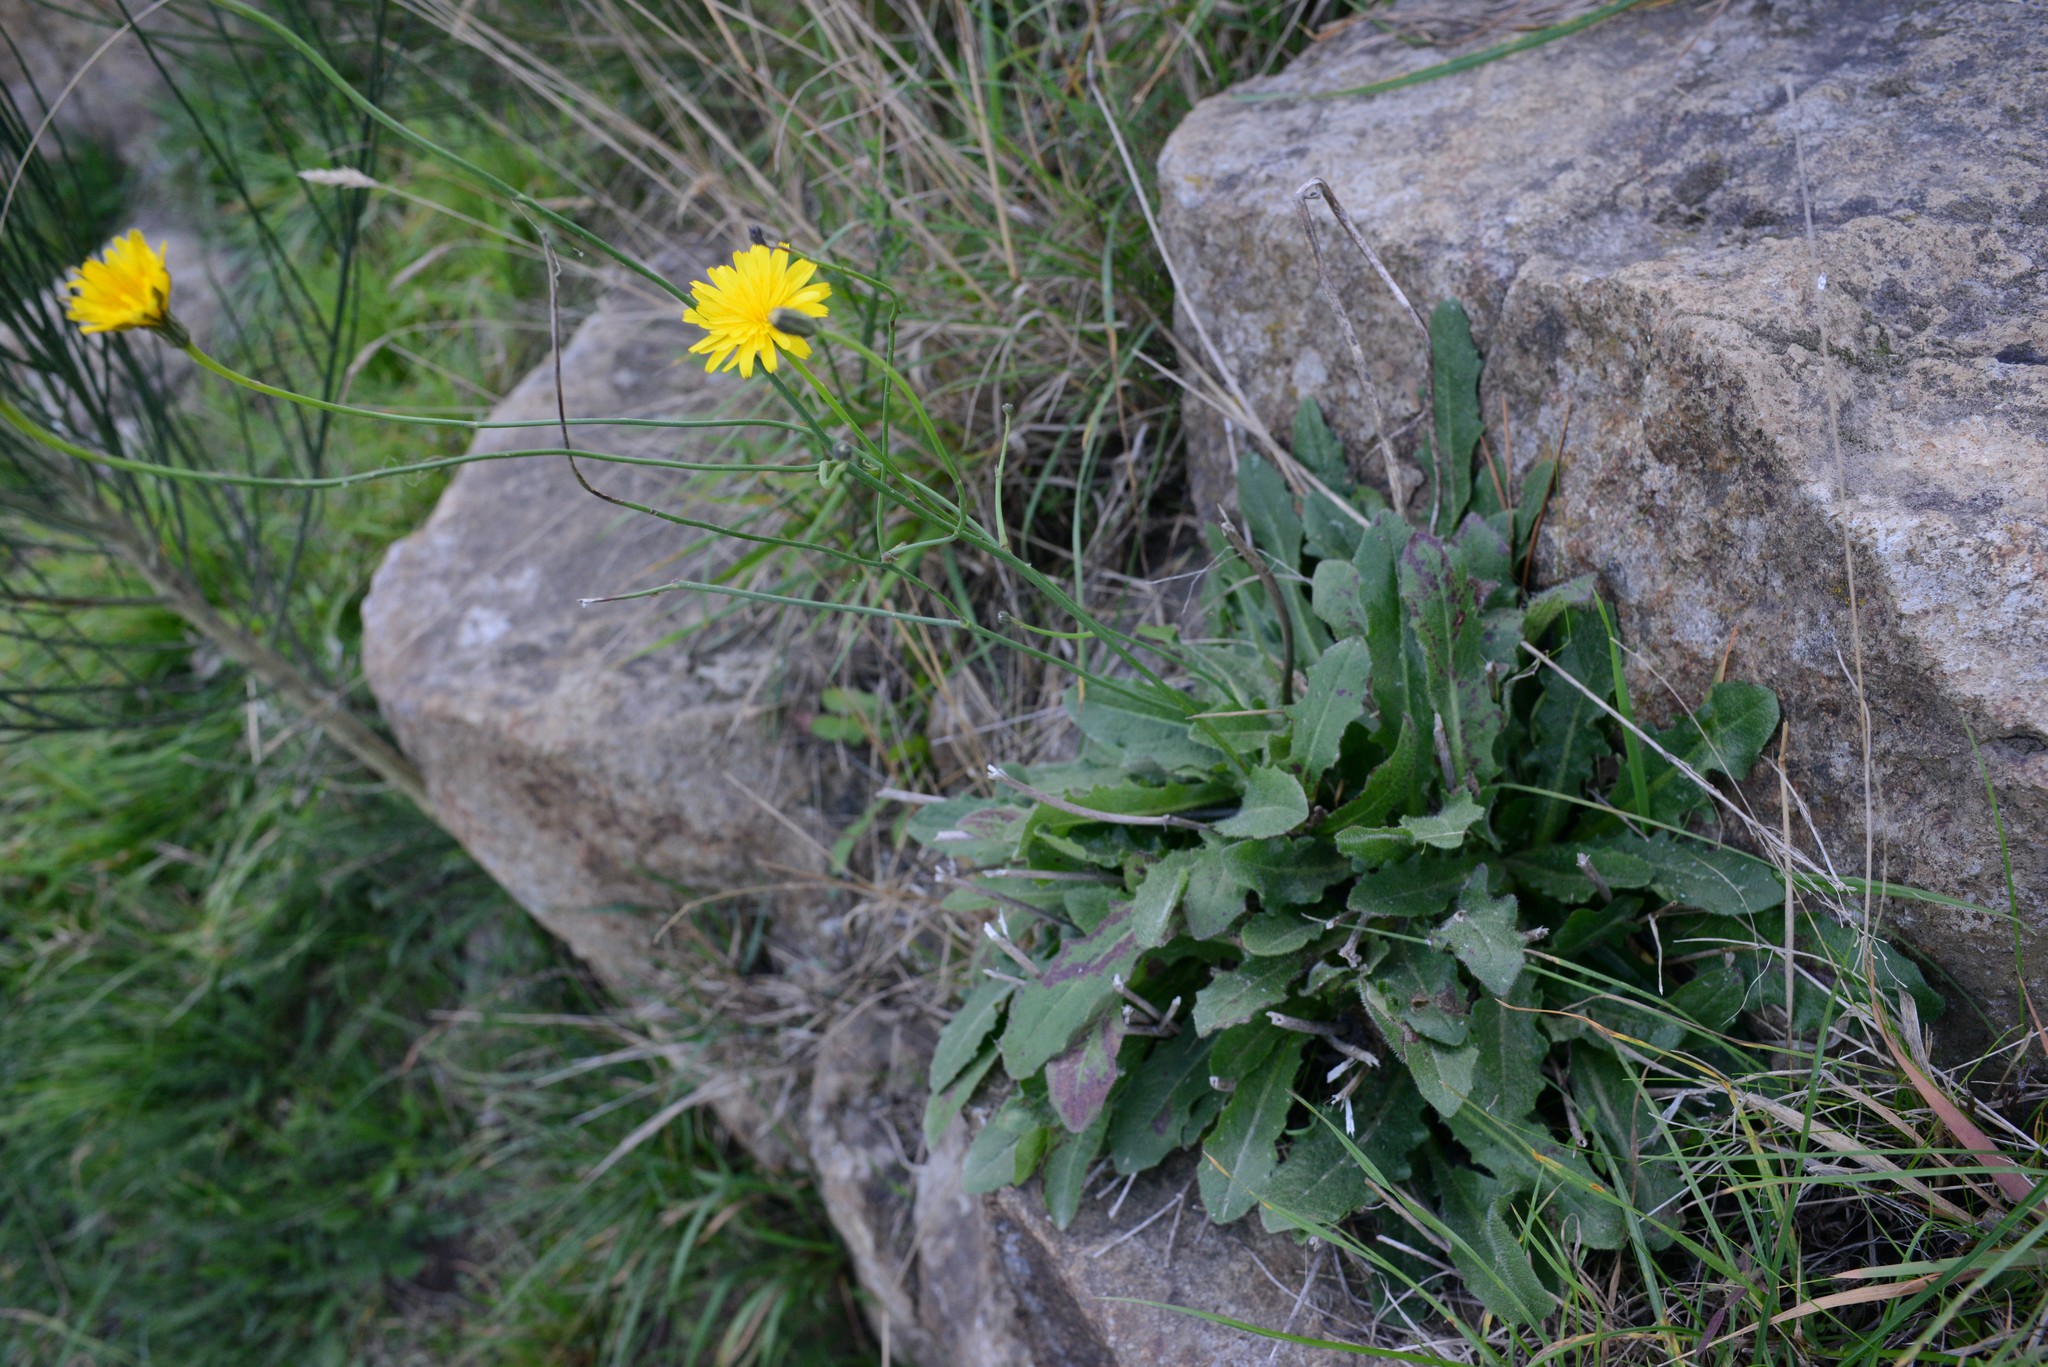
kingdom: Plantae
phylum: Tracheophyta
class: Magnoliopsida
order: Asterales
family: Asteraceae
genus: Hypochaeris
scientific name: Hypochaeris radicata
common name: Flatweed
